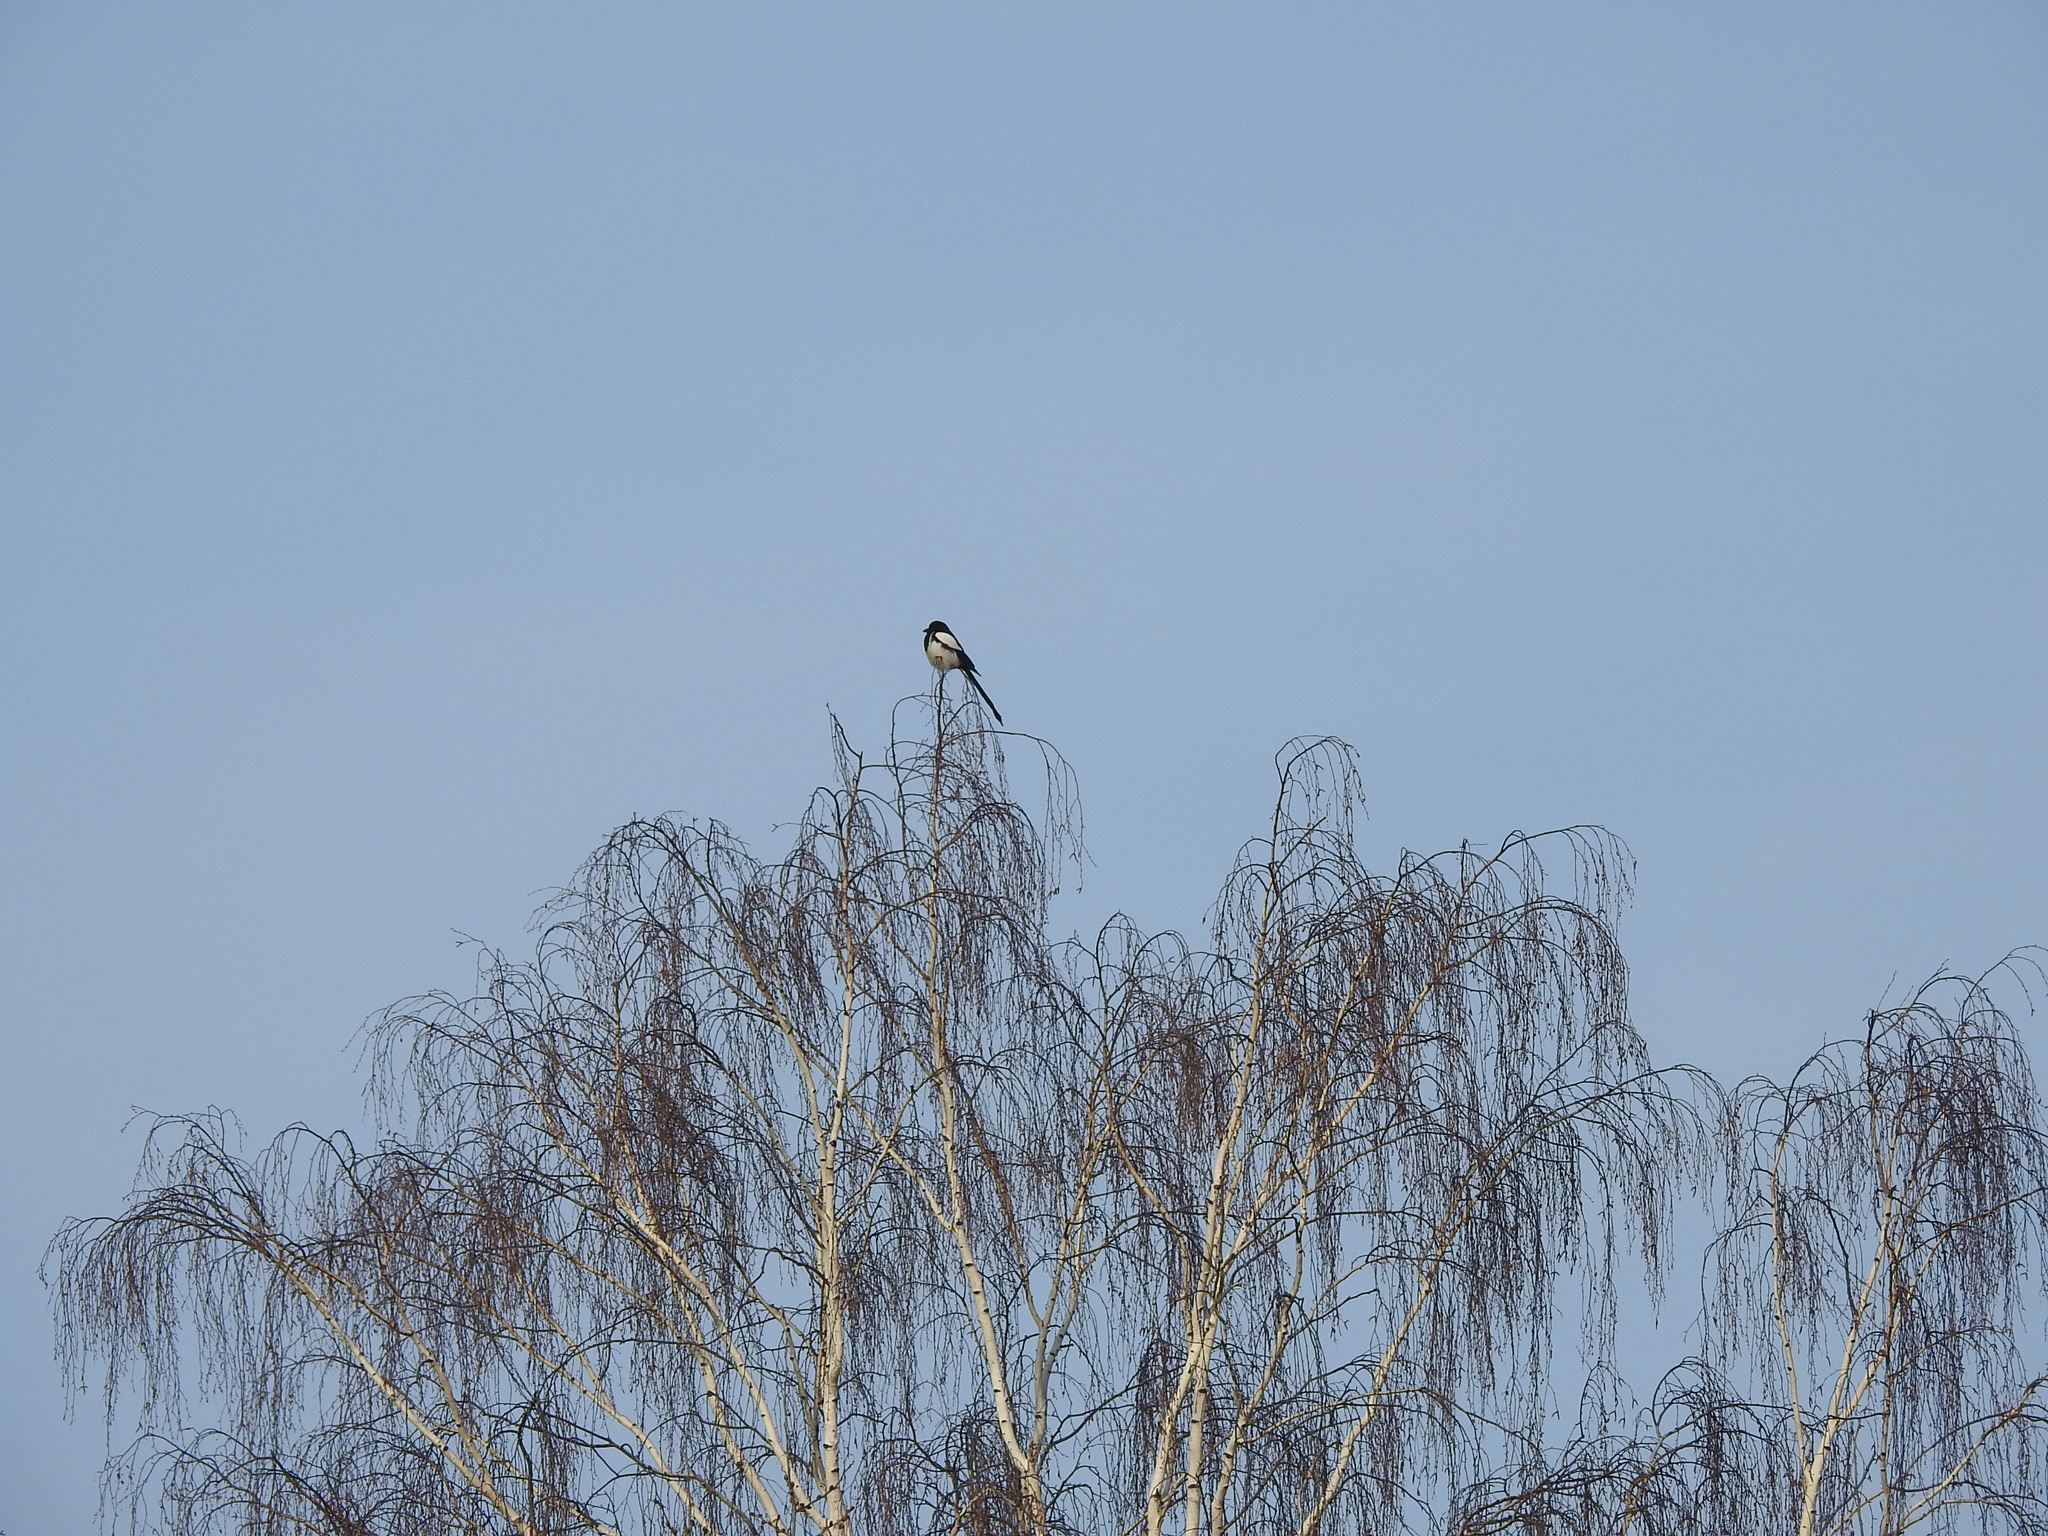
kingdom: Animalia
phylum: Chordata
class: Aves
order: Passeriformes
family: Corvidae
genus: Pica
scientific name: Pica pica
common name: Eurasian magpie
